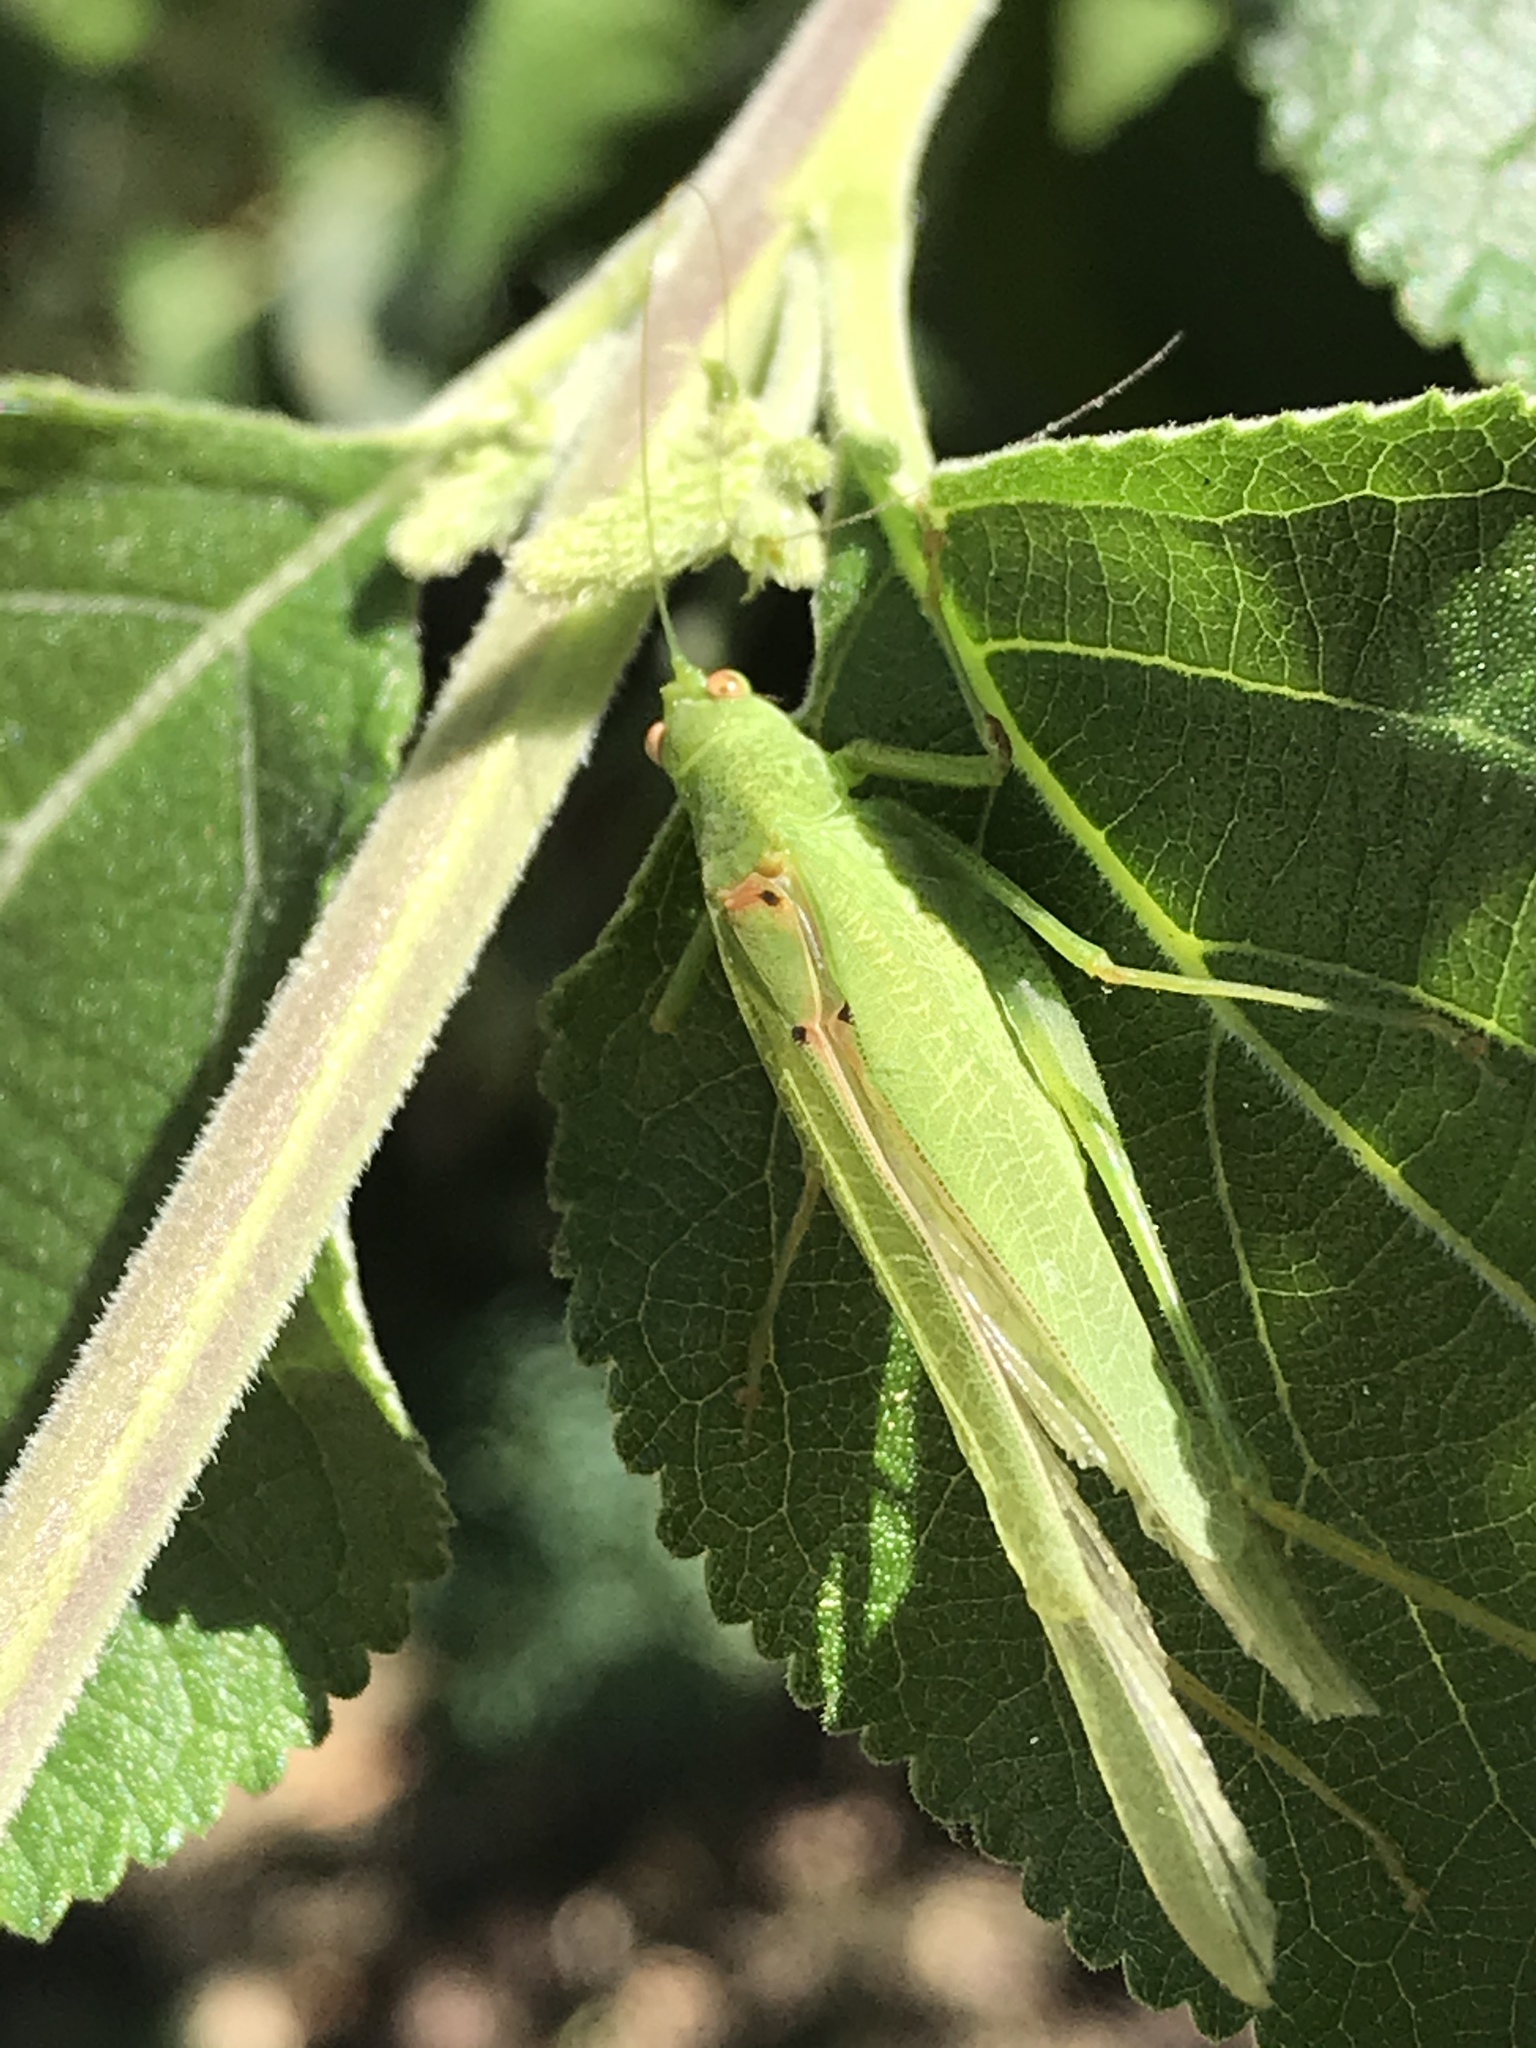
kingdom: Animalia
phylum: Arthropoda
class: Insecta
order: Orthoptera
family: Tettigoniidae
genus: Phaneroptera
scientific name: Phaneroptera nana
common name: Southern sickle bush-cricket
